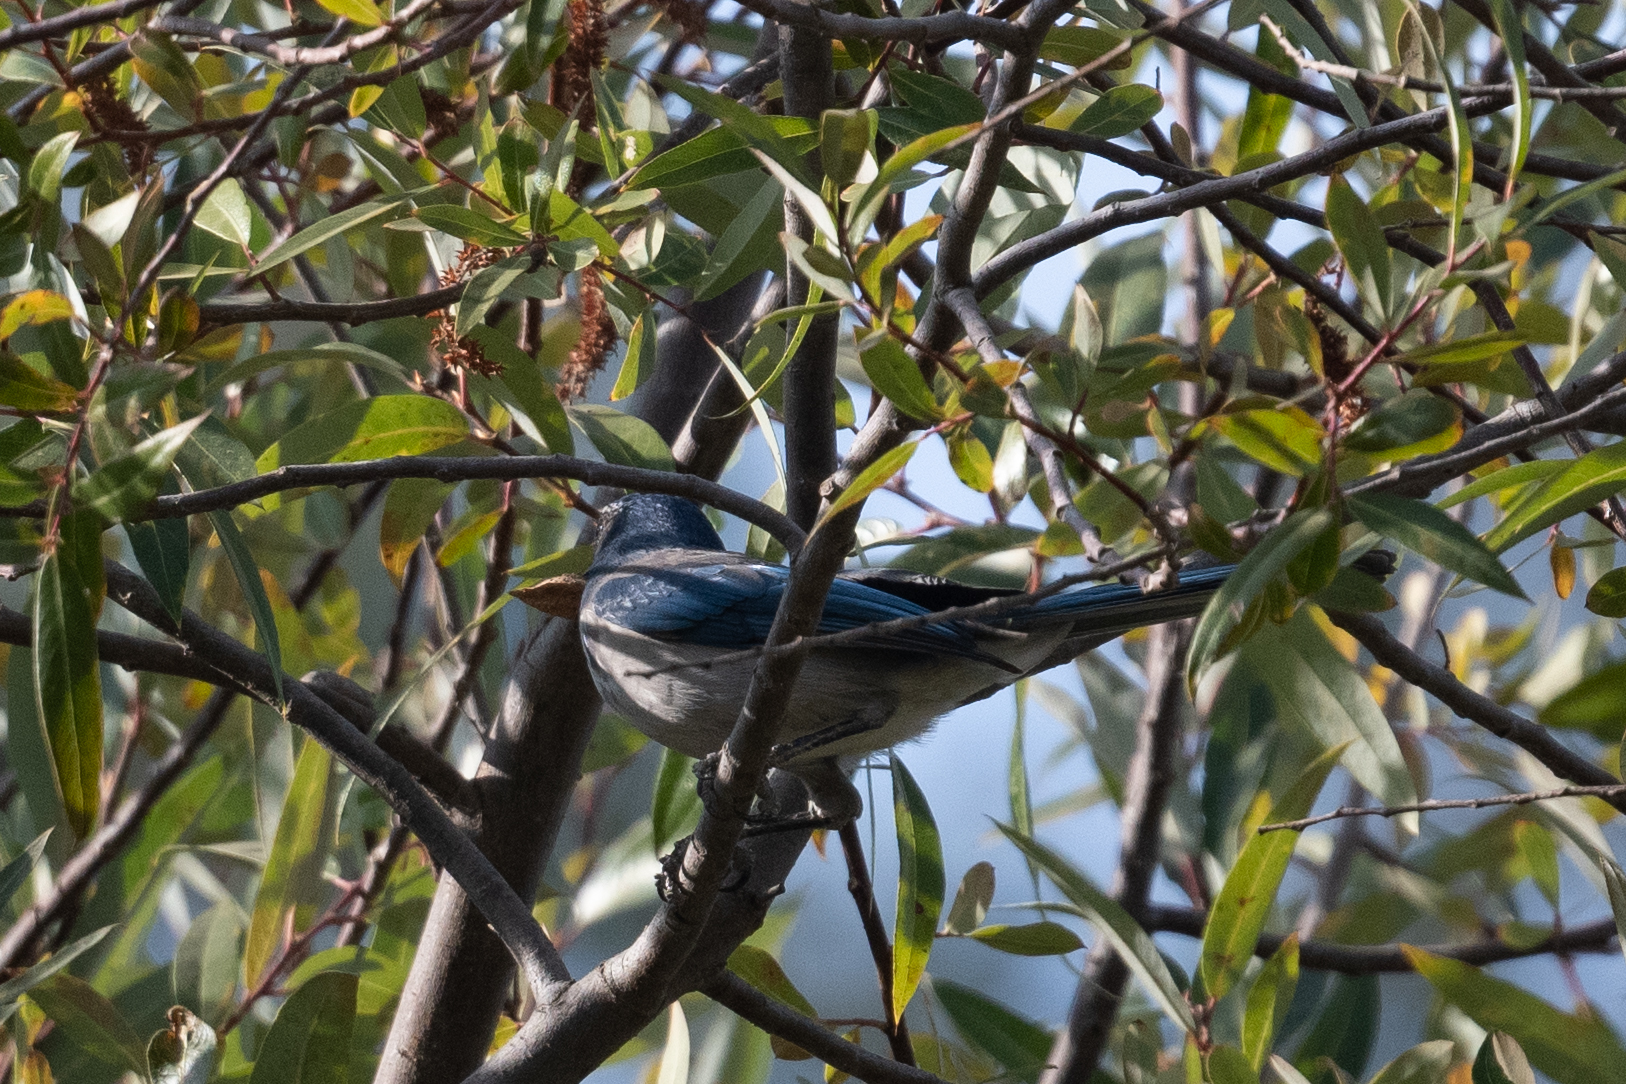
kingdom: Animalia
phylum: Chordata
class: Aves
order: Passeriformes
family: Corvidae
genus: Aphelocoma
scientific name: Aphelocoma californica
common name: California scrub-jay
